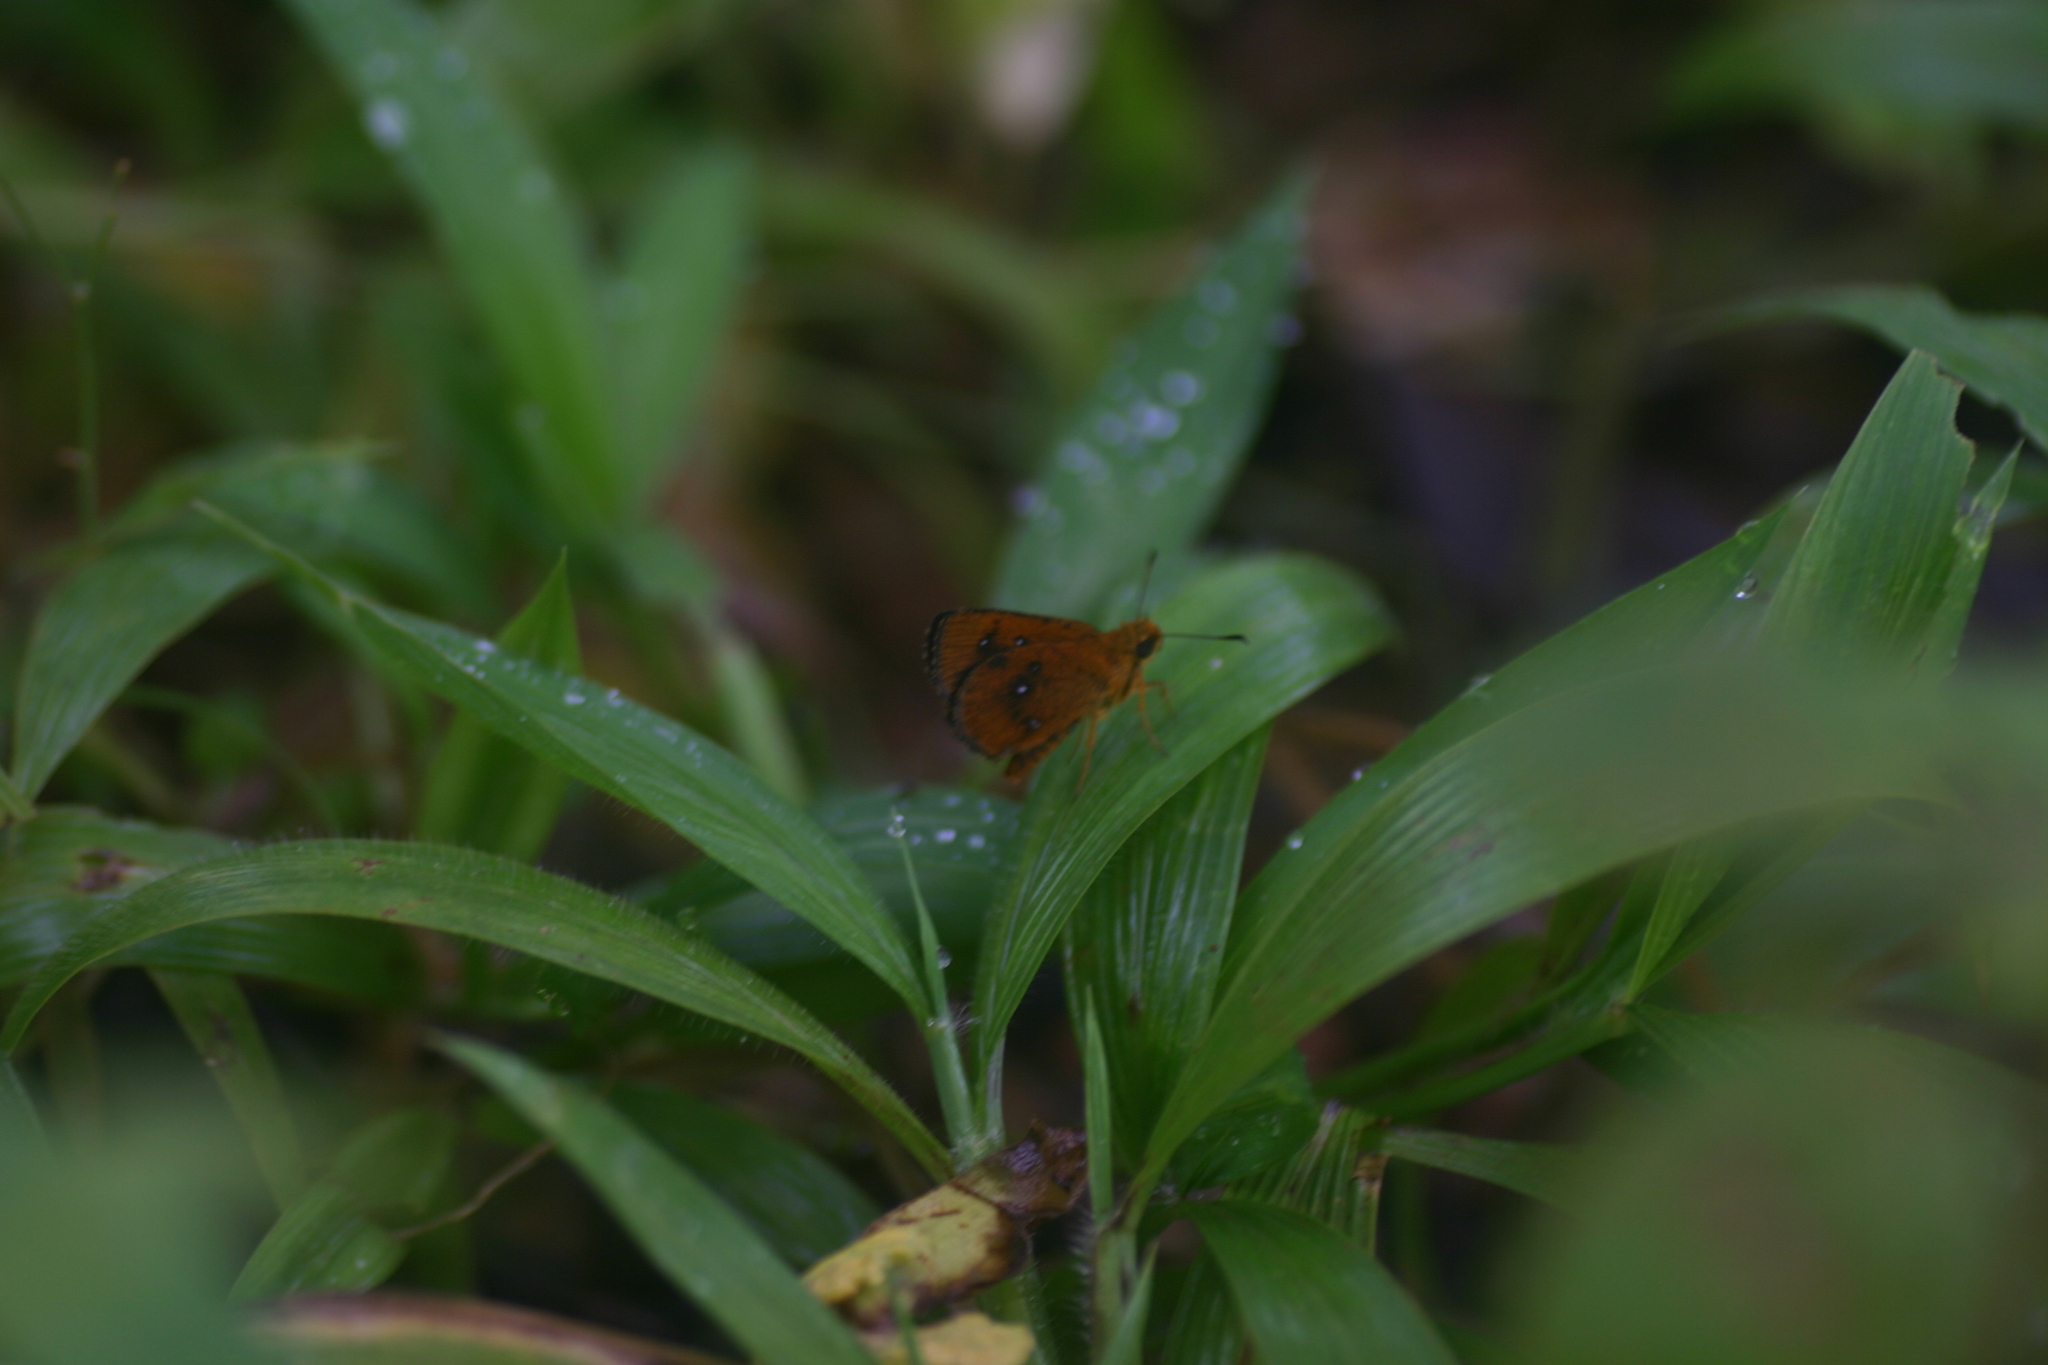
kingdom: Animalia
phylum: Arthropoda
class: Insecta
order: Lepidoptera
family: Hesperiidae
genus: Iambrix
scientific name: Iambrix salsala
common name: Chestnut bob
